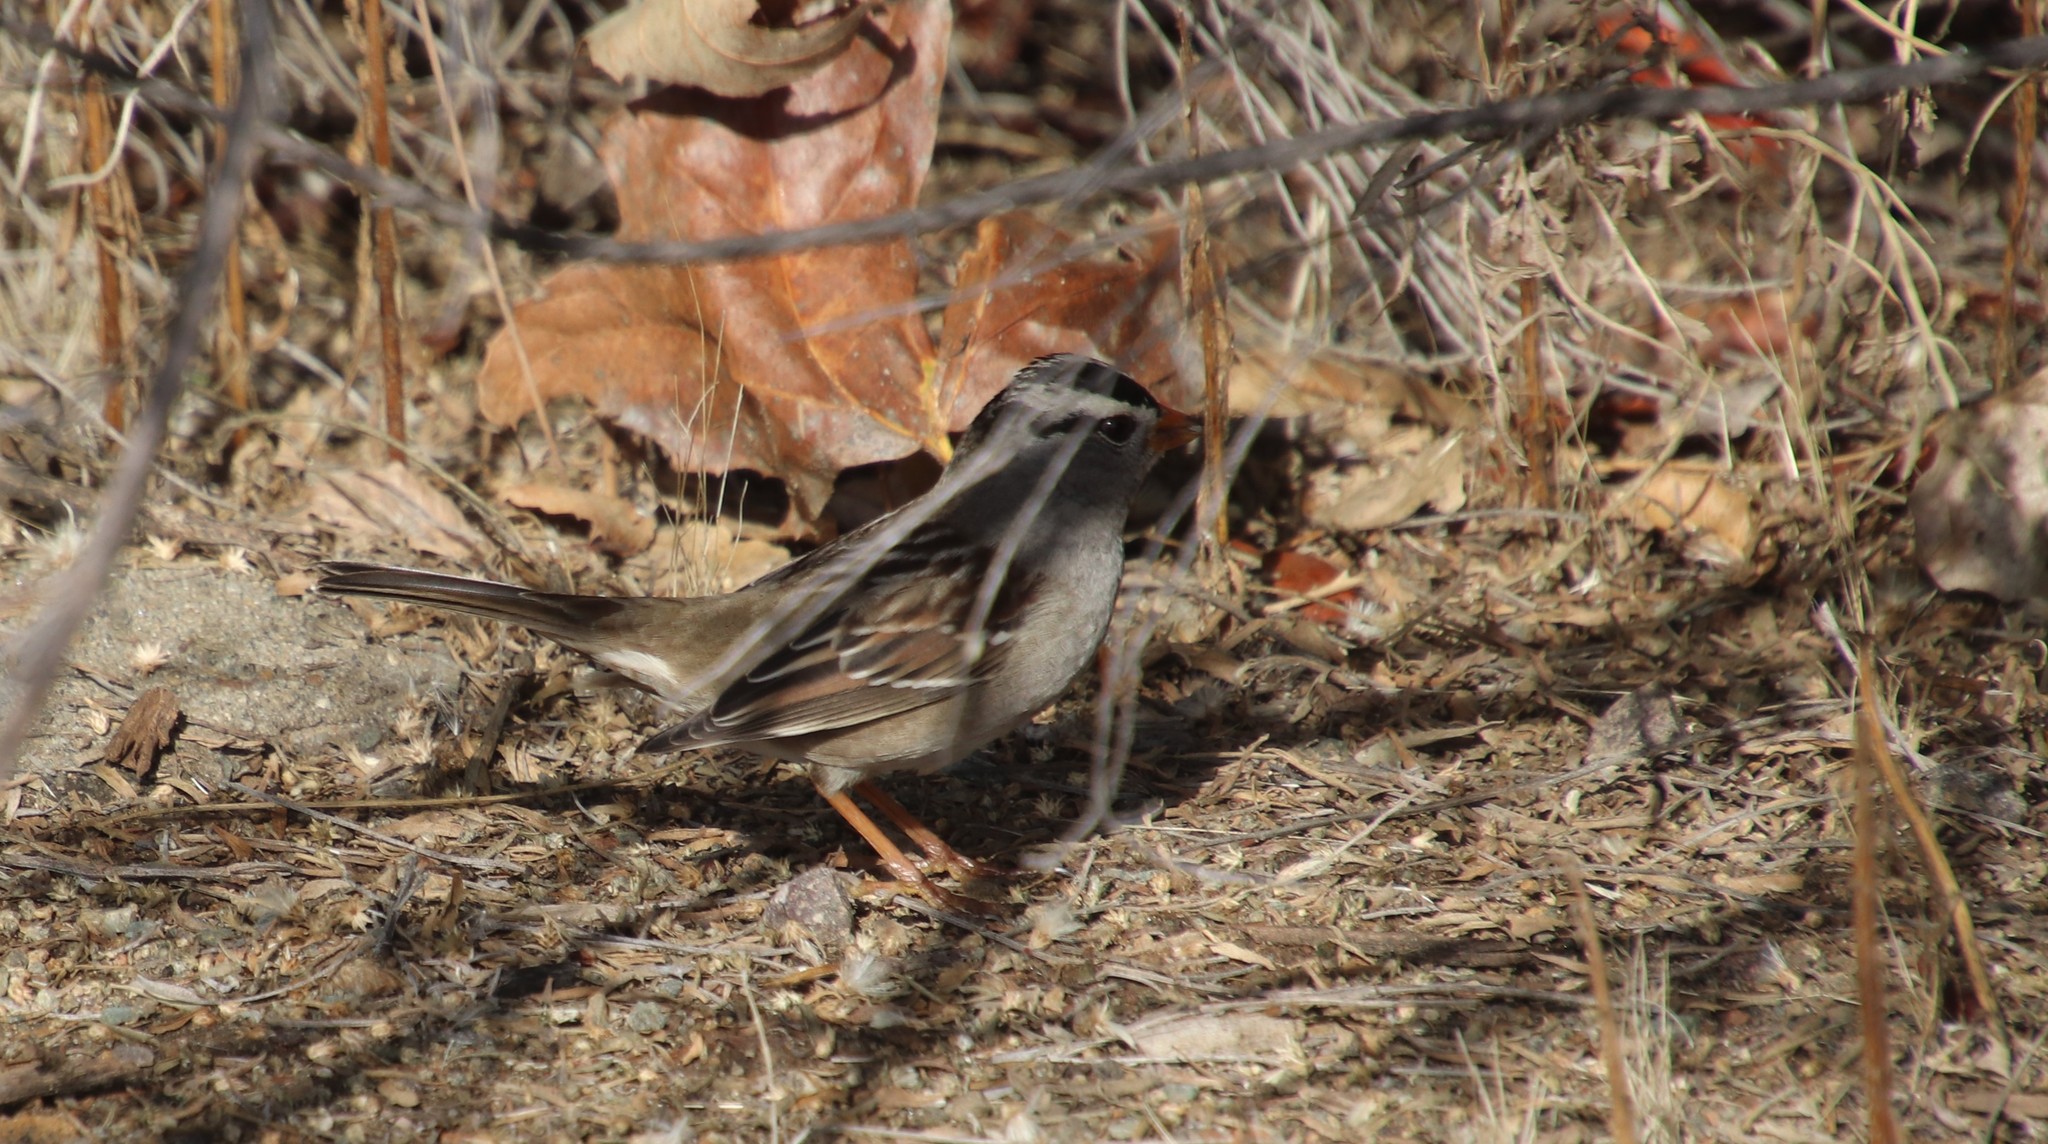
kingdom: Animalia
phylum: Chordata
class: Aves
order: Passeriformes
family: Passerellidae
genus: Zonotrichia
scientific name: Zonotrichia leucophrys
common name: White-crowned sparrow
